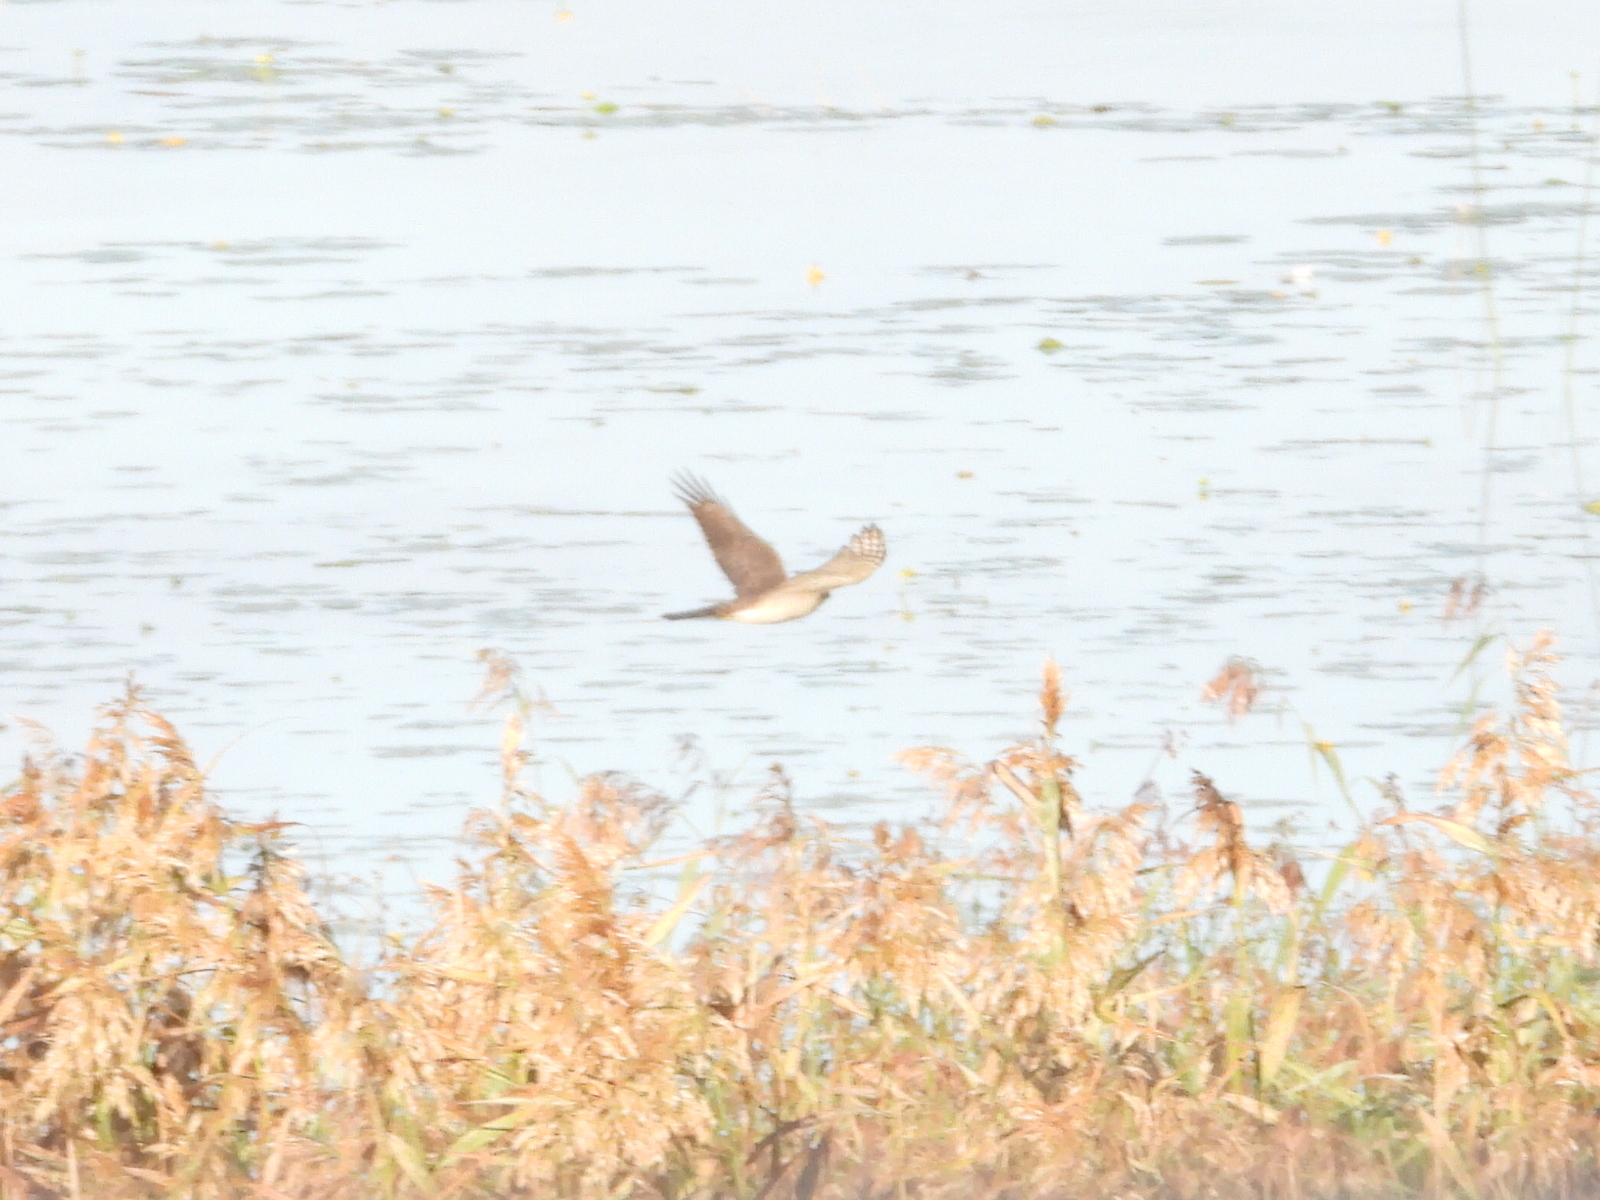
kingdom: Animalia
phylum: Chordata
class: Aves
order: Accipitriformes
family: Accipitridae
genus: Accipiter
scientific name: Accipiter nisus
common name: Eurasian sparrowhawk
